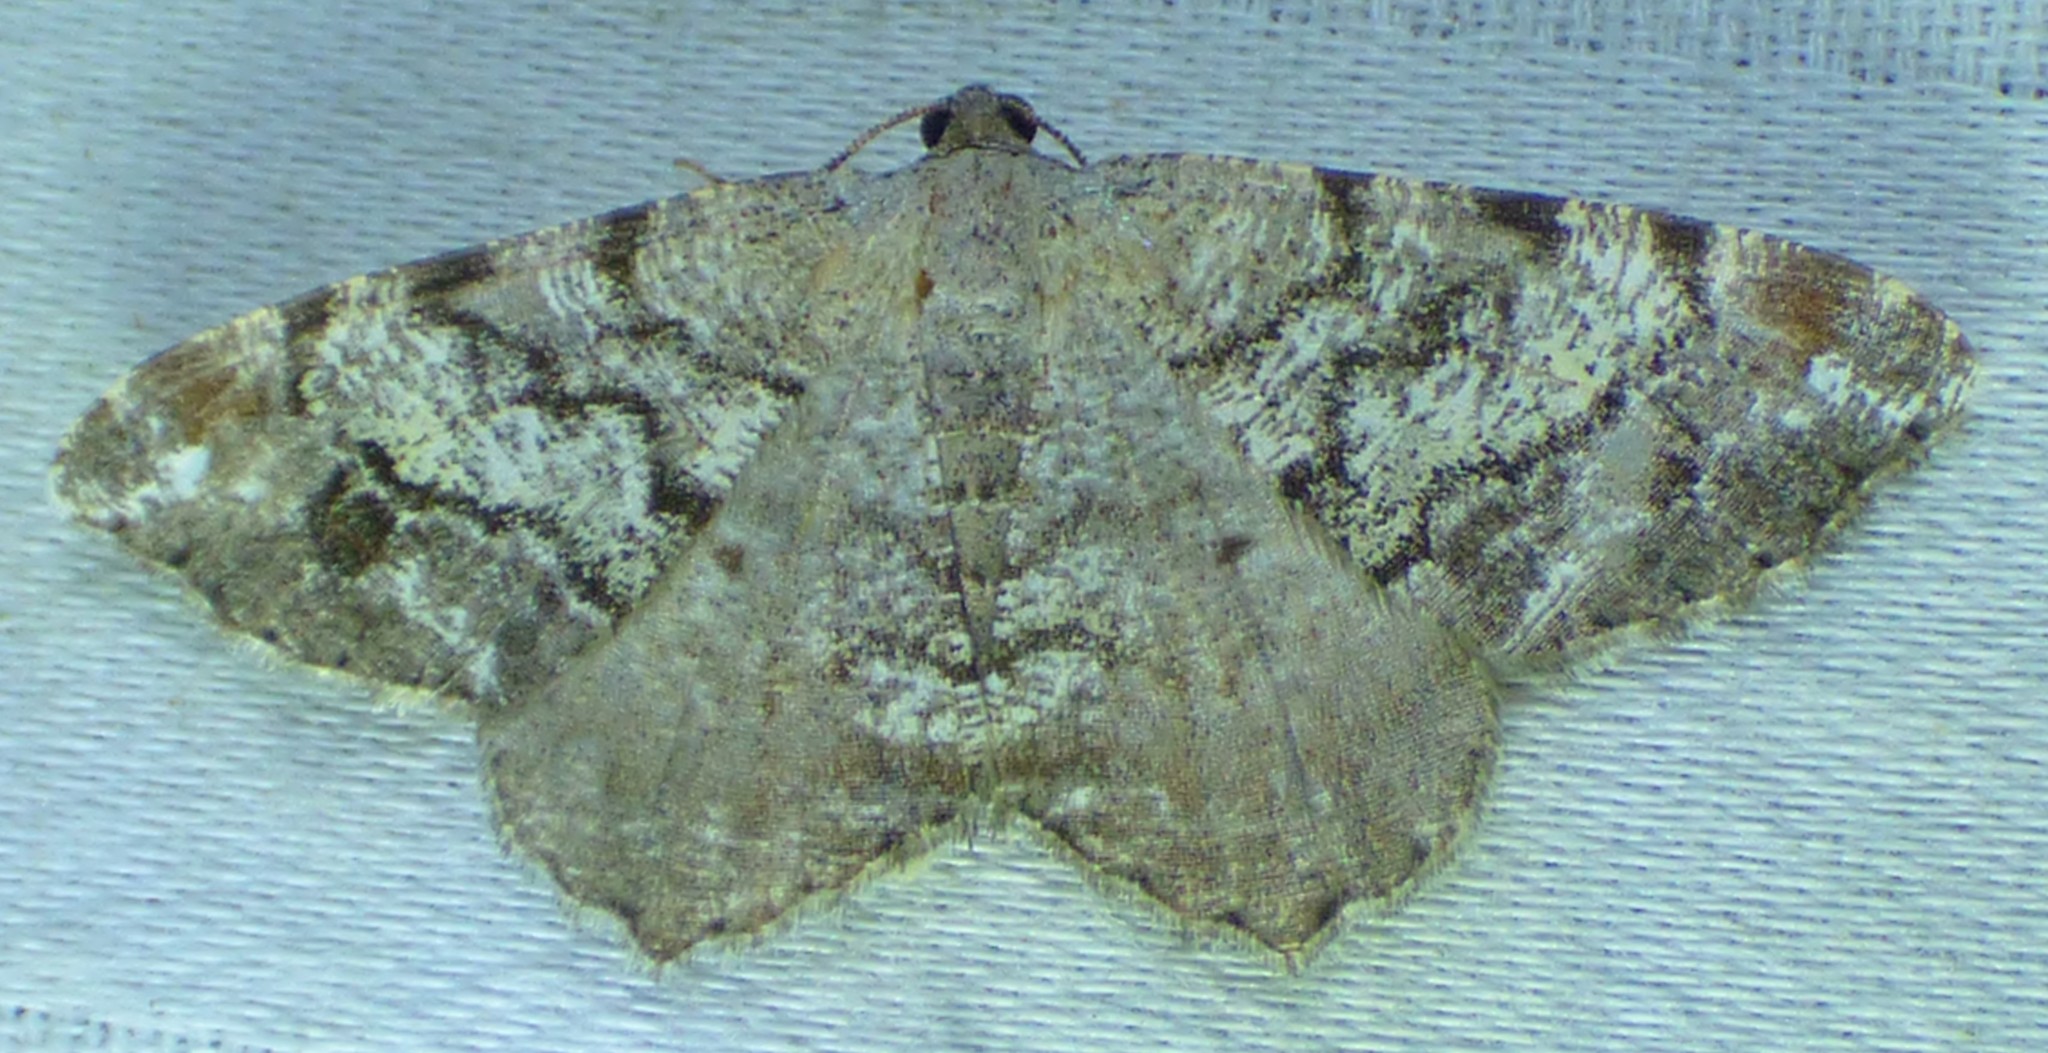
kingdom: Animalia
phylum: Arthropoda
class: Insecta
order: Lepidoptera
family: Geometridae
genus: Macaria
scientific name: Macaria granitata
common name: Granite moth
